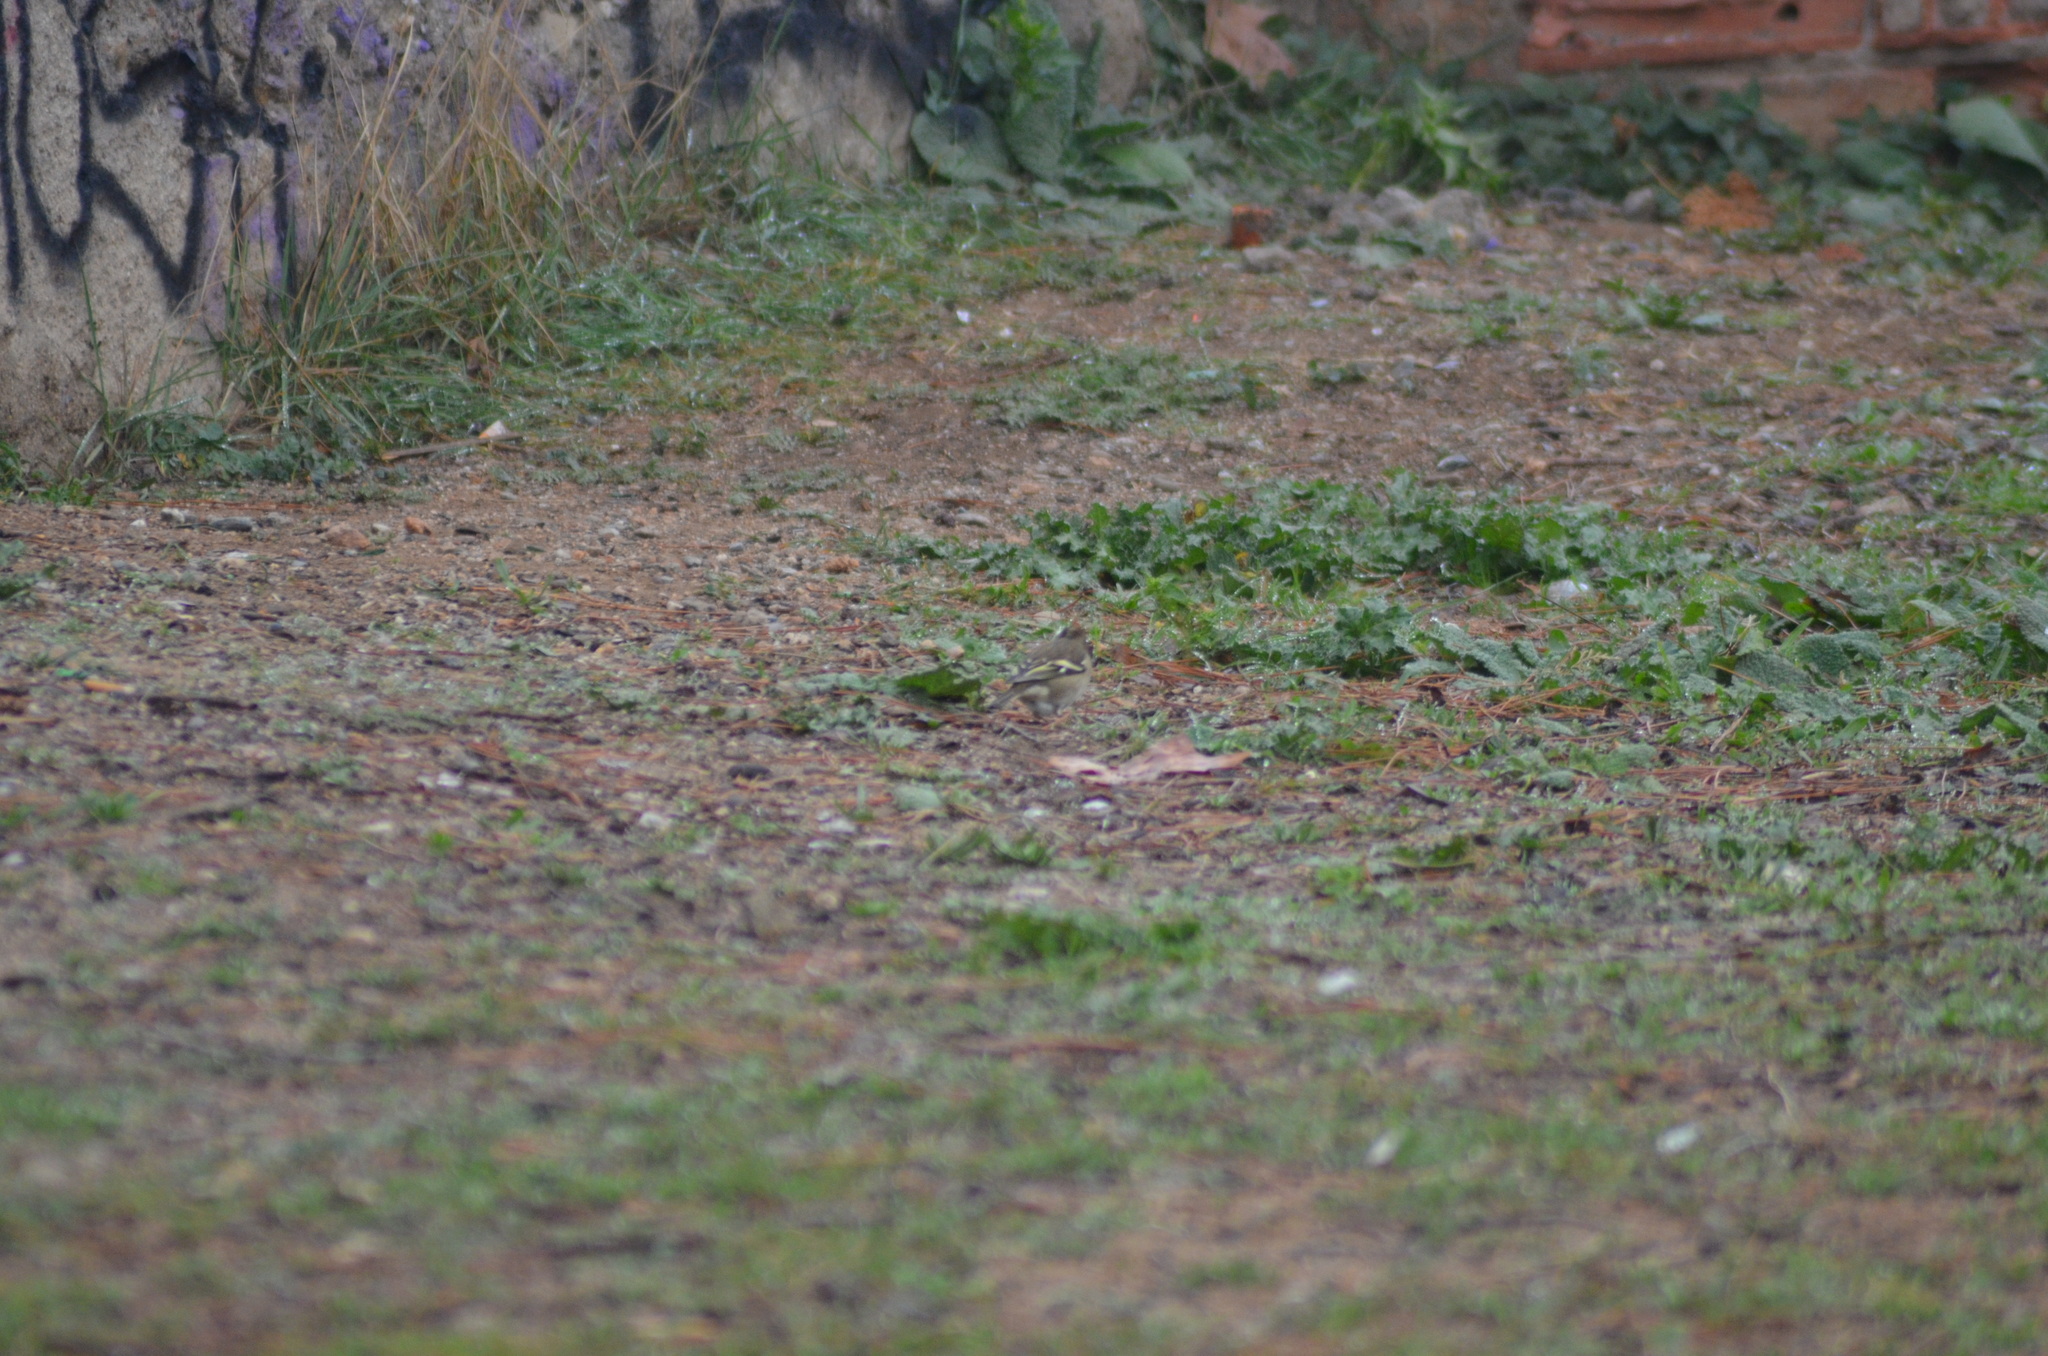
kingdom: Animalia
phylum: Chordata
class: Aves
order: Passeriformes
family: Fringillidae
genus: Fringilla
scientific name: Fringilla coelebs
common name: Common chaffinch
